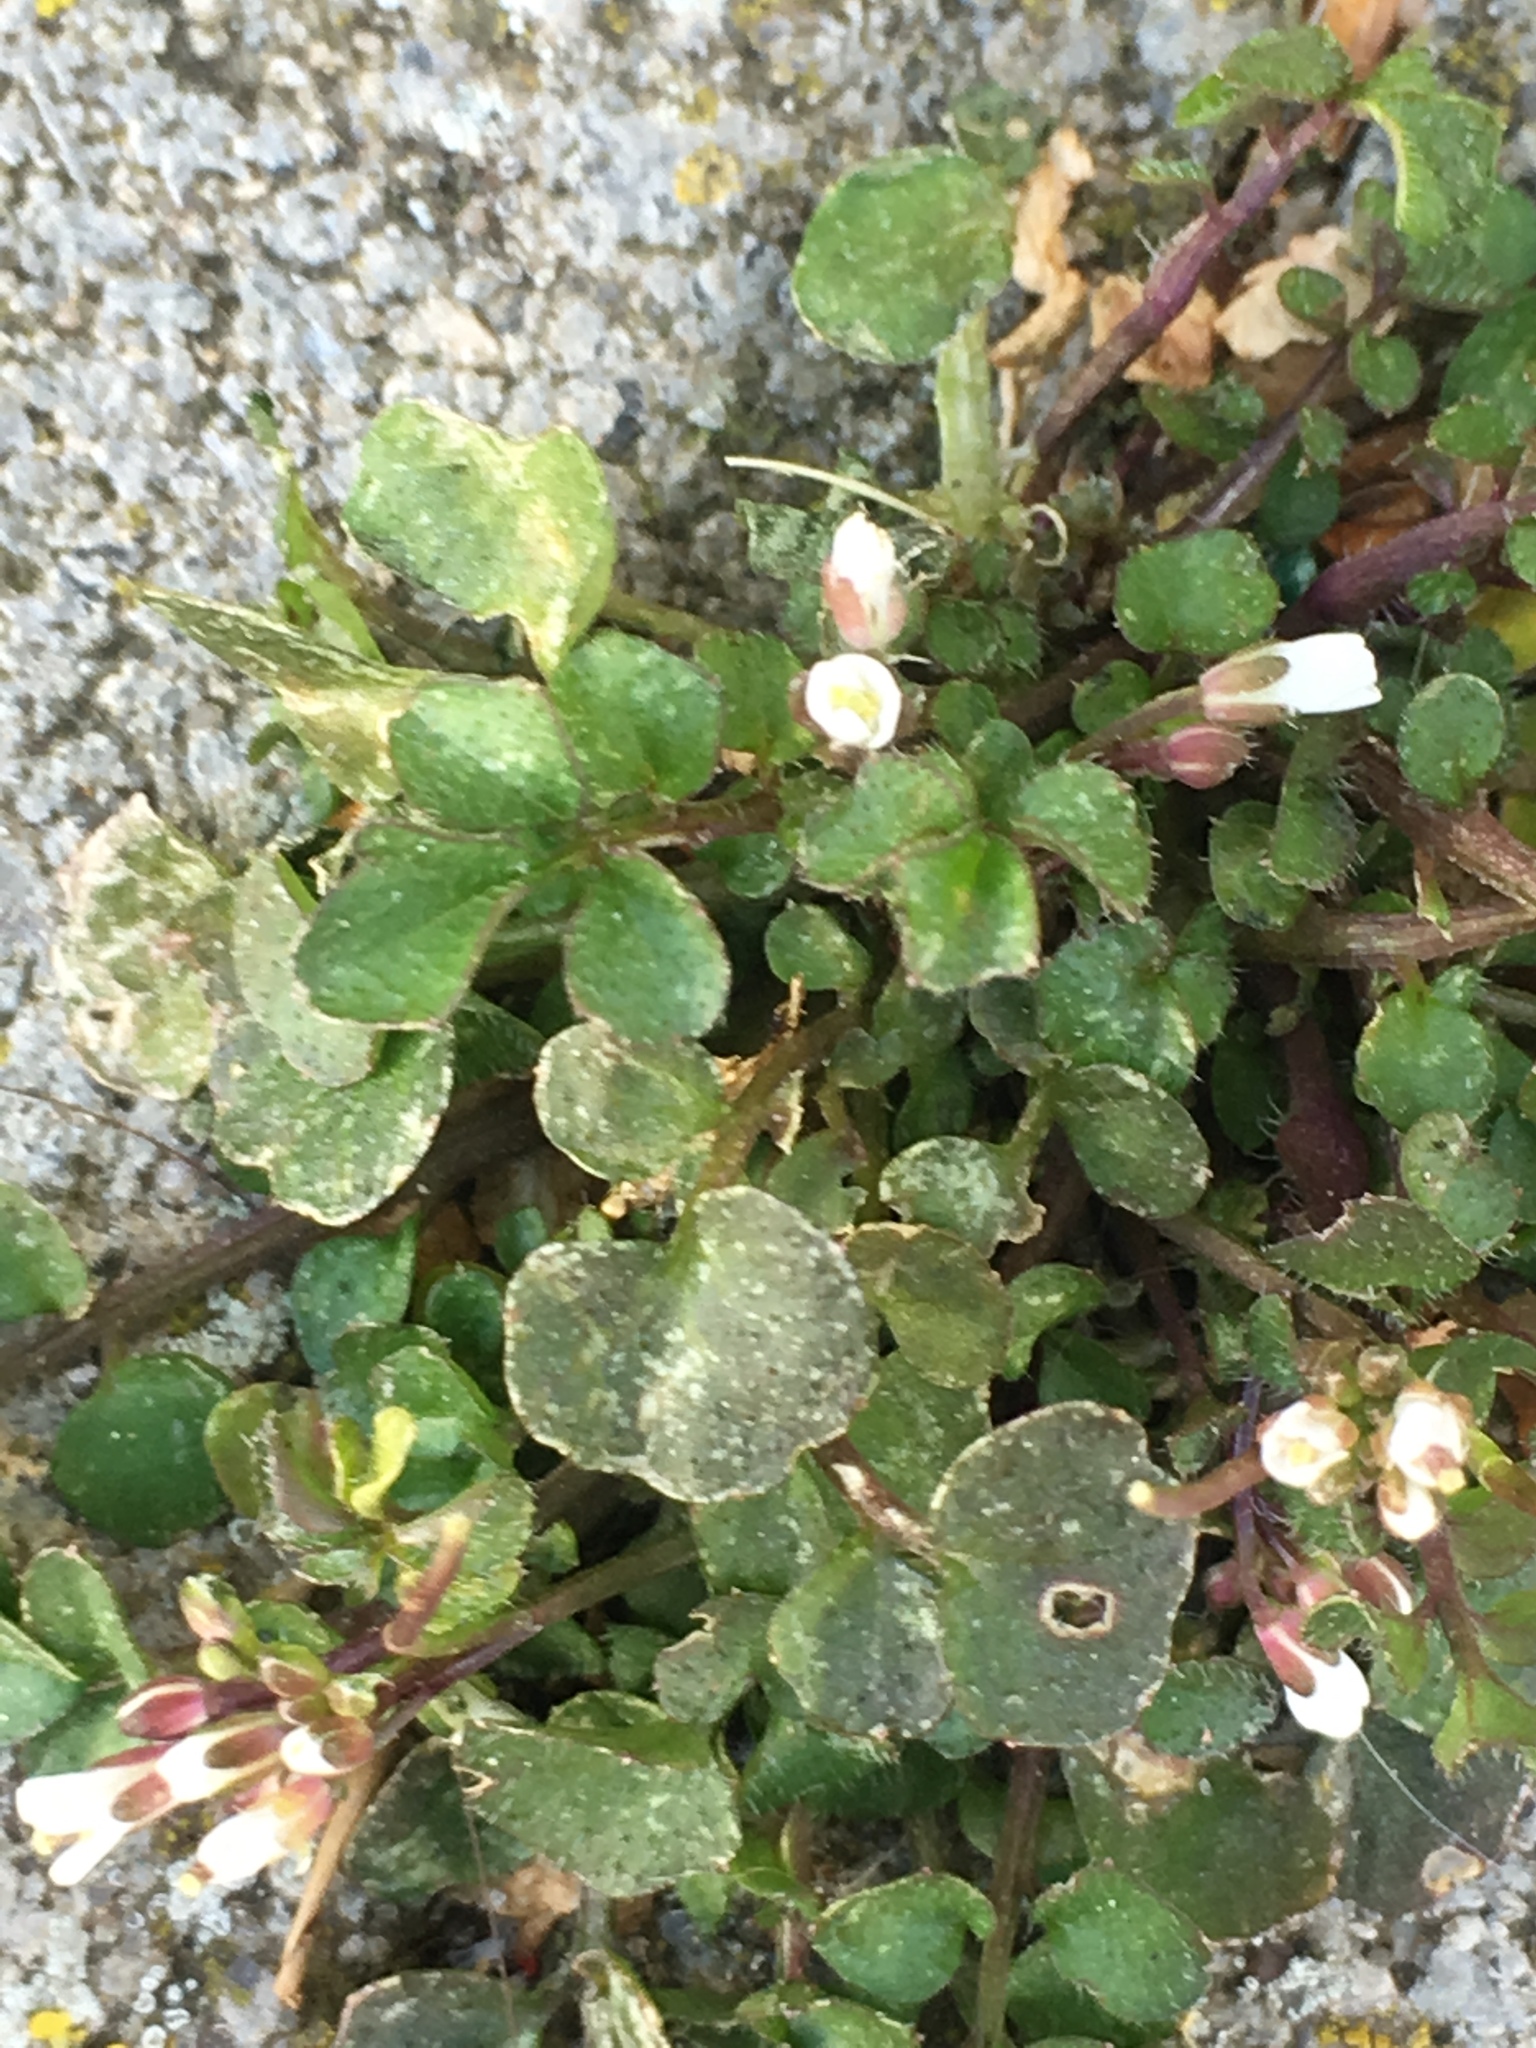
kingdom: Plantae
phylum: Tracheophyta
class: Magnoliopsida
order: Brassicales
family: Brassicaceae
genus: Cardamine
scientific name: Cardamine hirsuta
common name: Hairy bittercress
